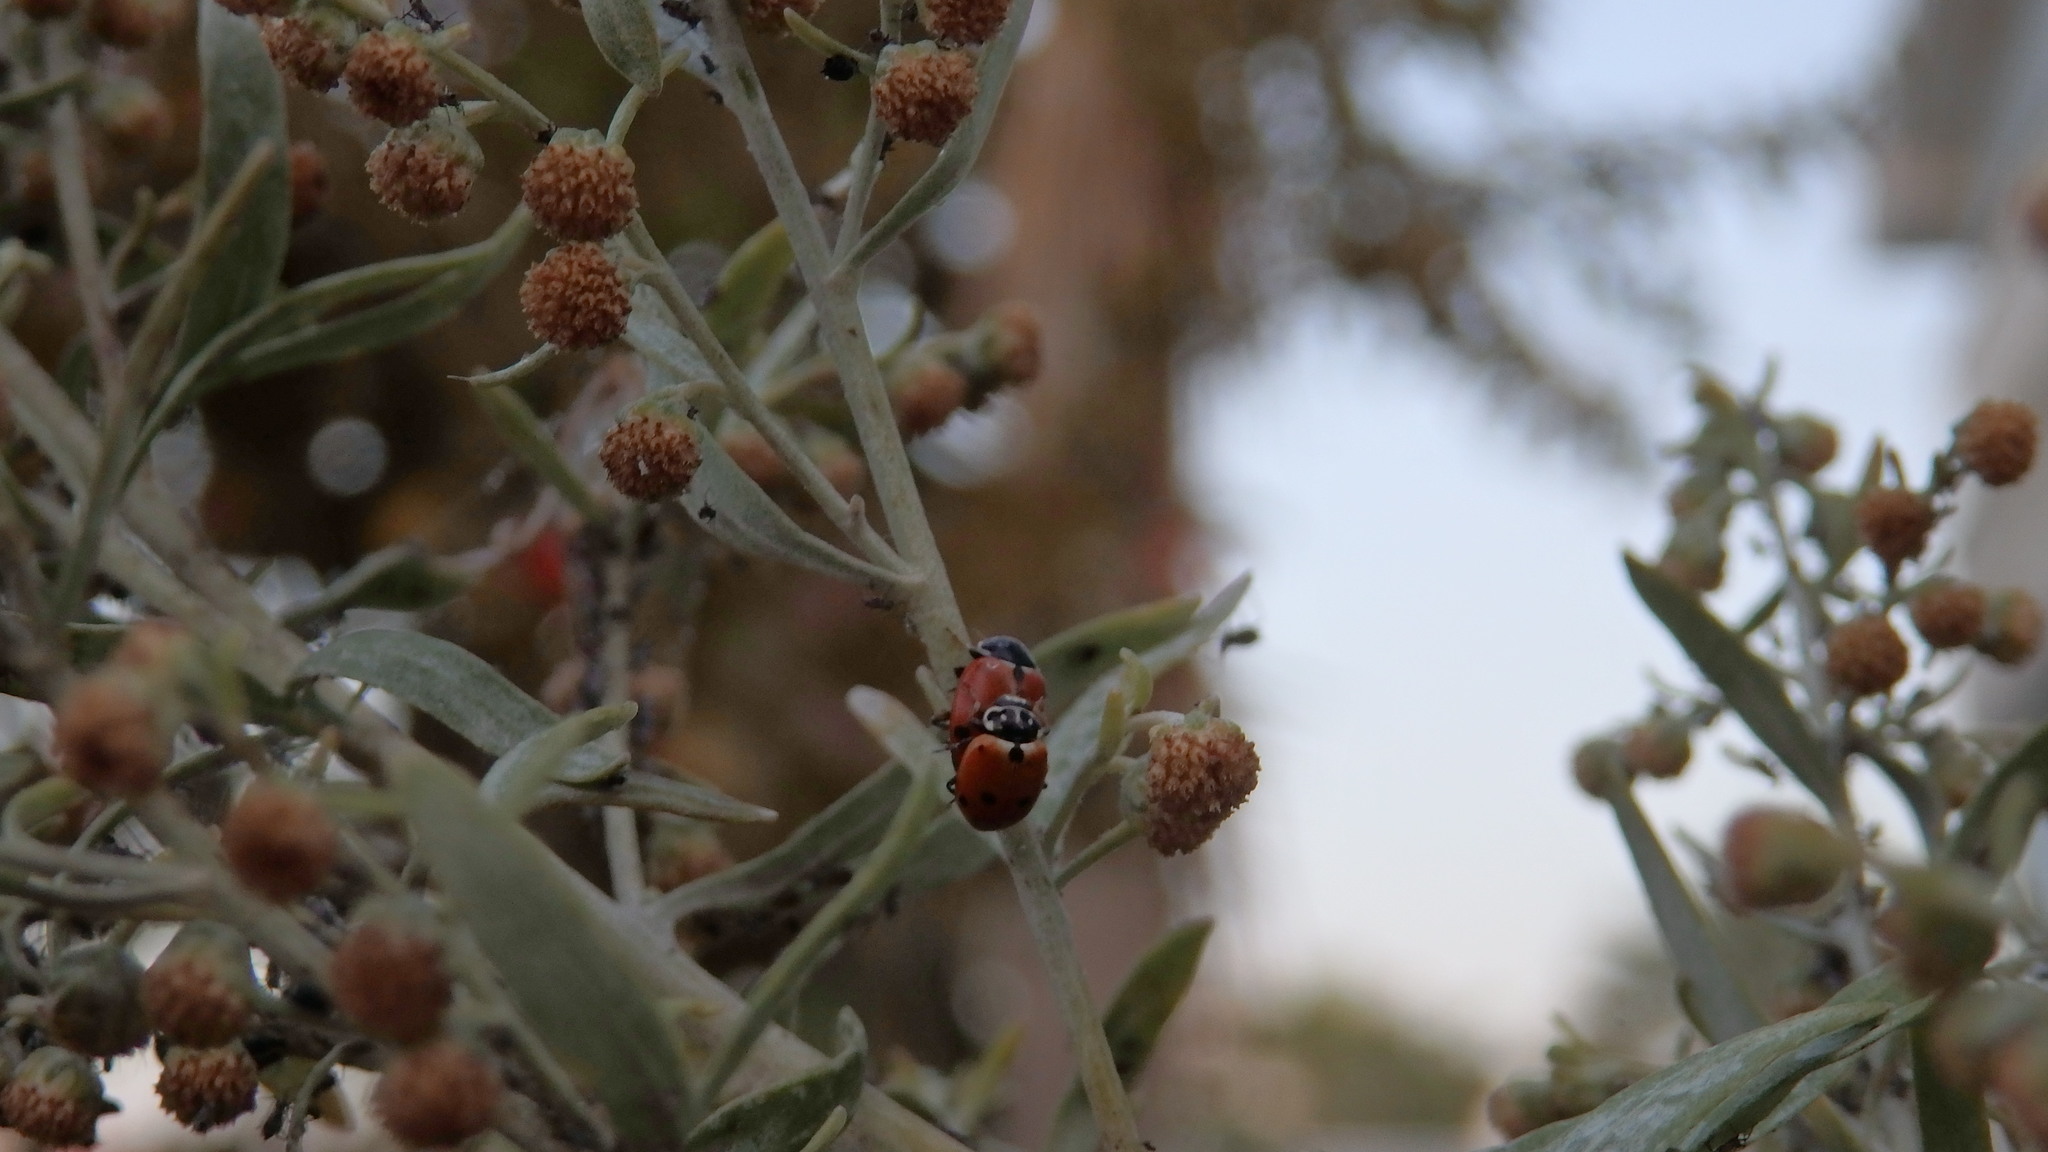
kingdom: Animalia
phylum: Arthropoda
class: Insecta
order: Coleoptera
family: Coccinellidae
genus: Hippodamia
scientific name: Hippodamia variegata
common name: Ladybird beetle
